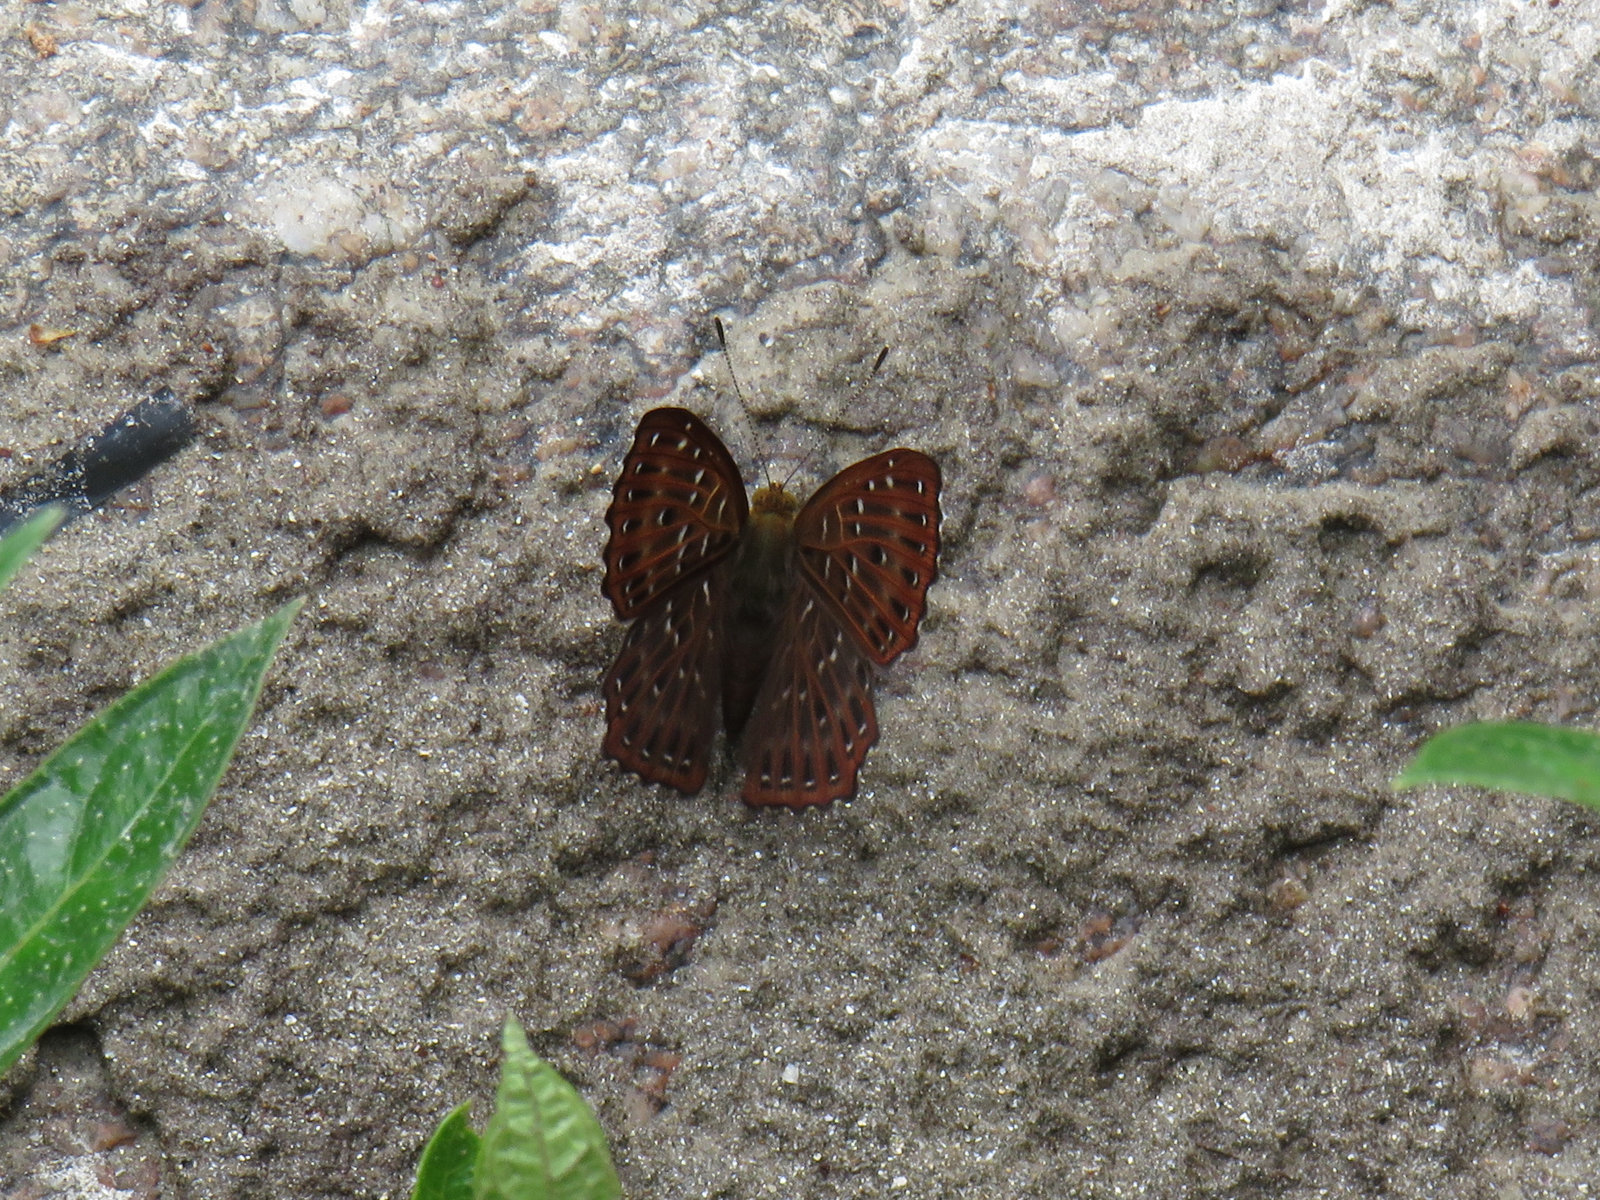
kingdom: Animalia
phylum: Arthropoda
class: Insecta
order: Lepidoptera
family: Riodinidae
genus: Zemeros
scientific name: Zemeros flegyas
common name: Punchinello
